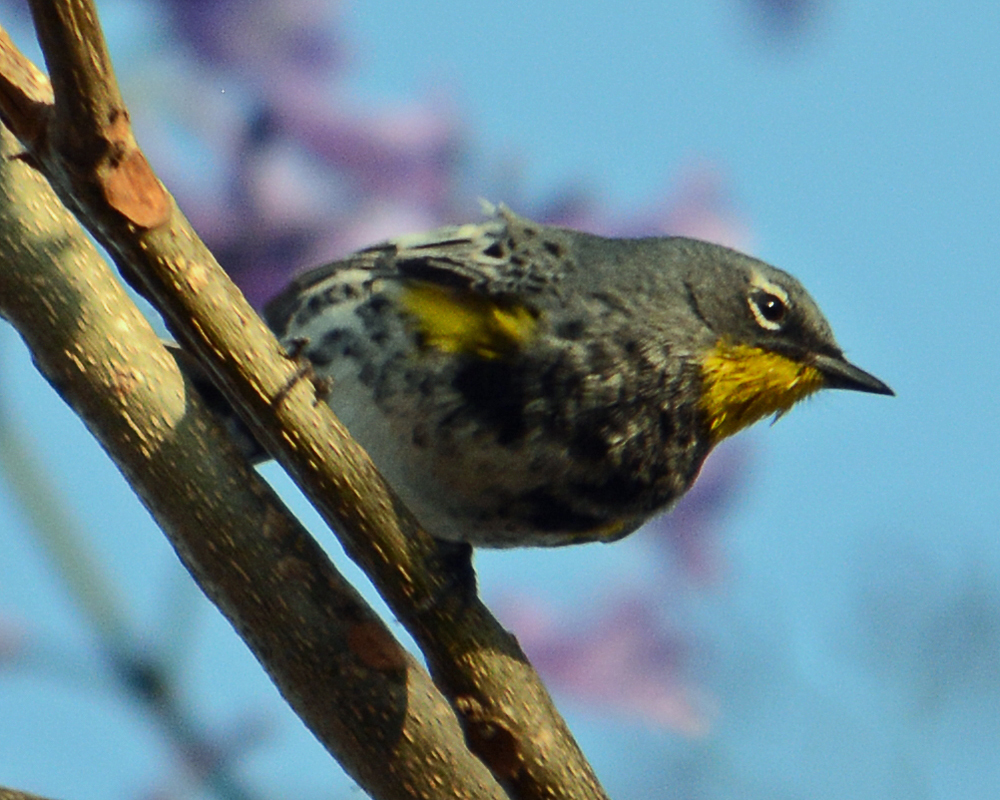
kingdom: Animalia
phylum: Chordata
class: Aves
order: Passeriformes
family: Parulidae
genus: Setophaga
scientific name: Setophaga coronata
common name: Myrtle warbler
